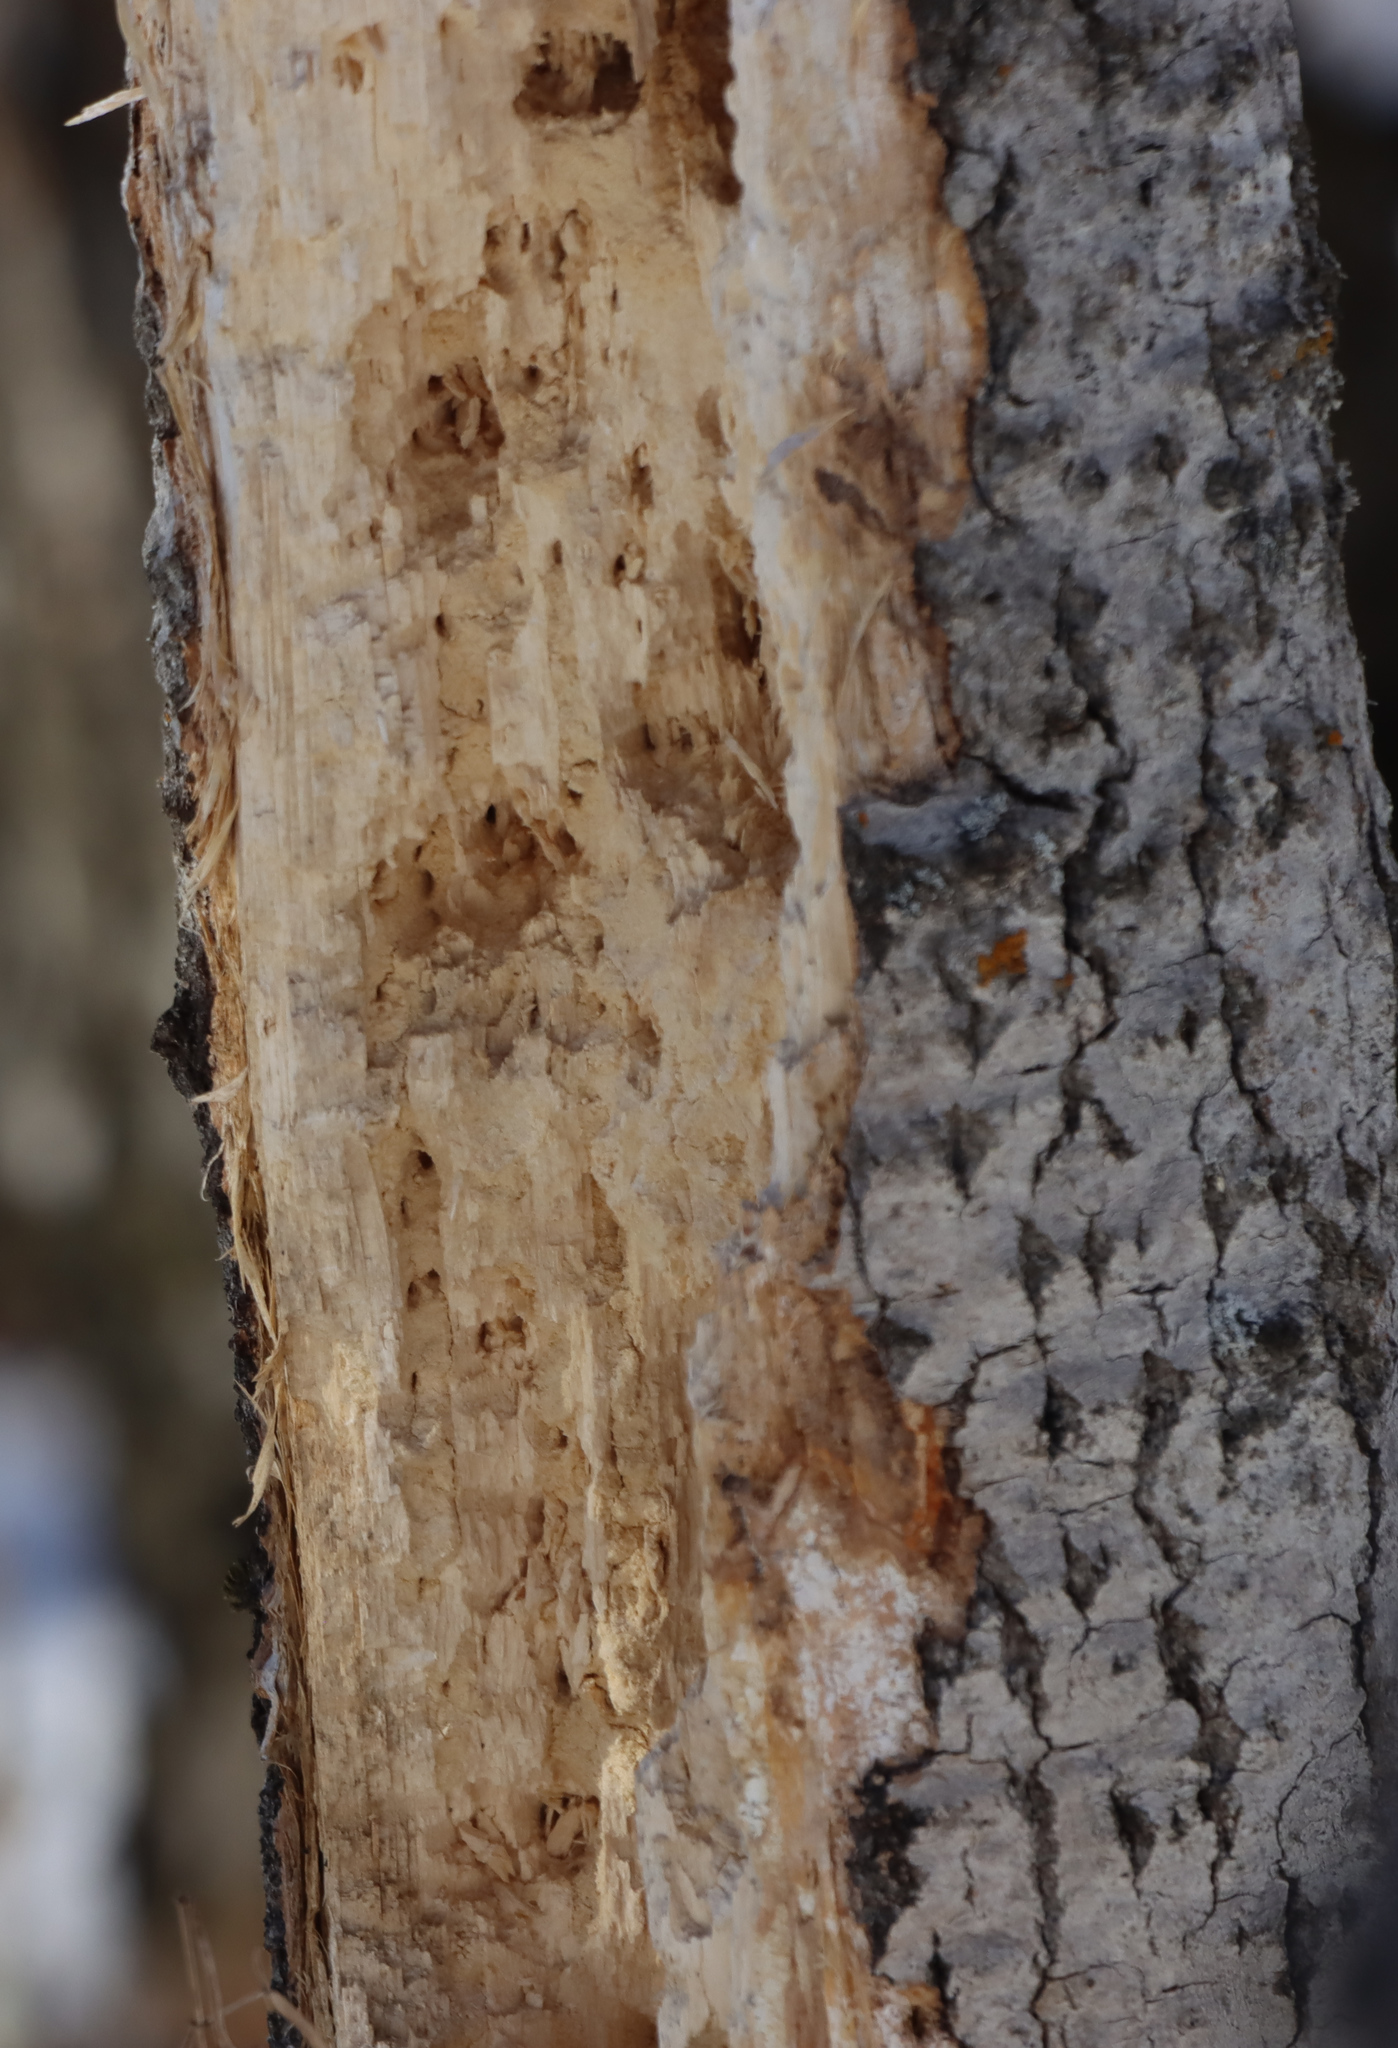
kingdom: Animalia
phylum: Chordata
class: Aves
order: Piciformes
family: Picidae
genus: Dryocopus
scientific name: Dryocopus pileatus
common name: Pileated woodpecker
